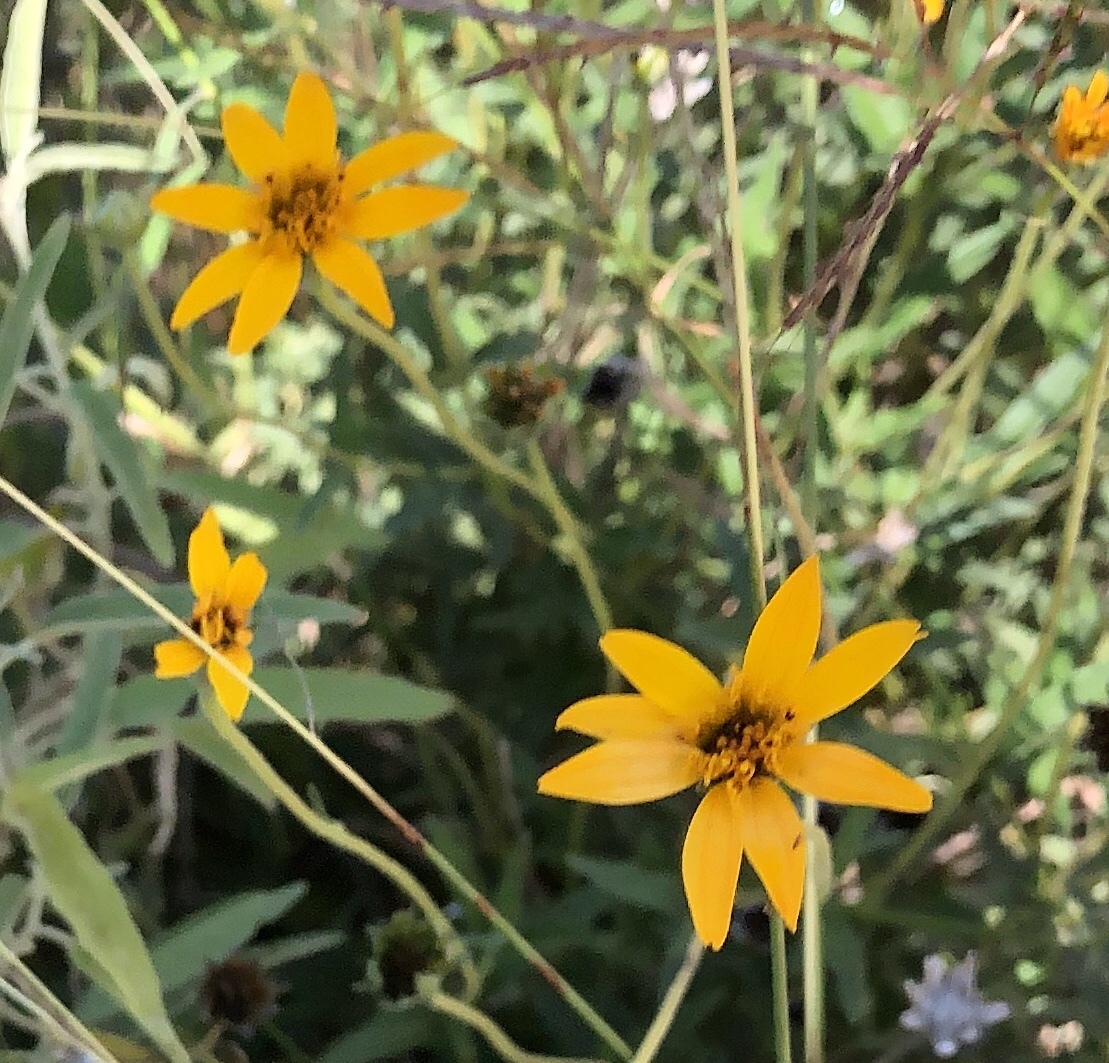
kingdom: Plantae
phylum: Tracheophyta
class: Magnoliopsida
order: Asterales
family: Asteraceae
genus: Wedelia
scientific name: Wedelia acapulcensis
